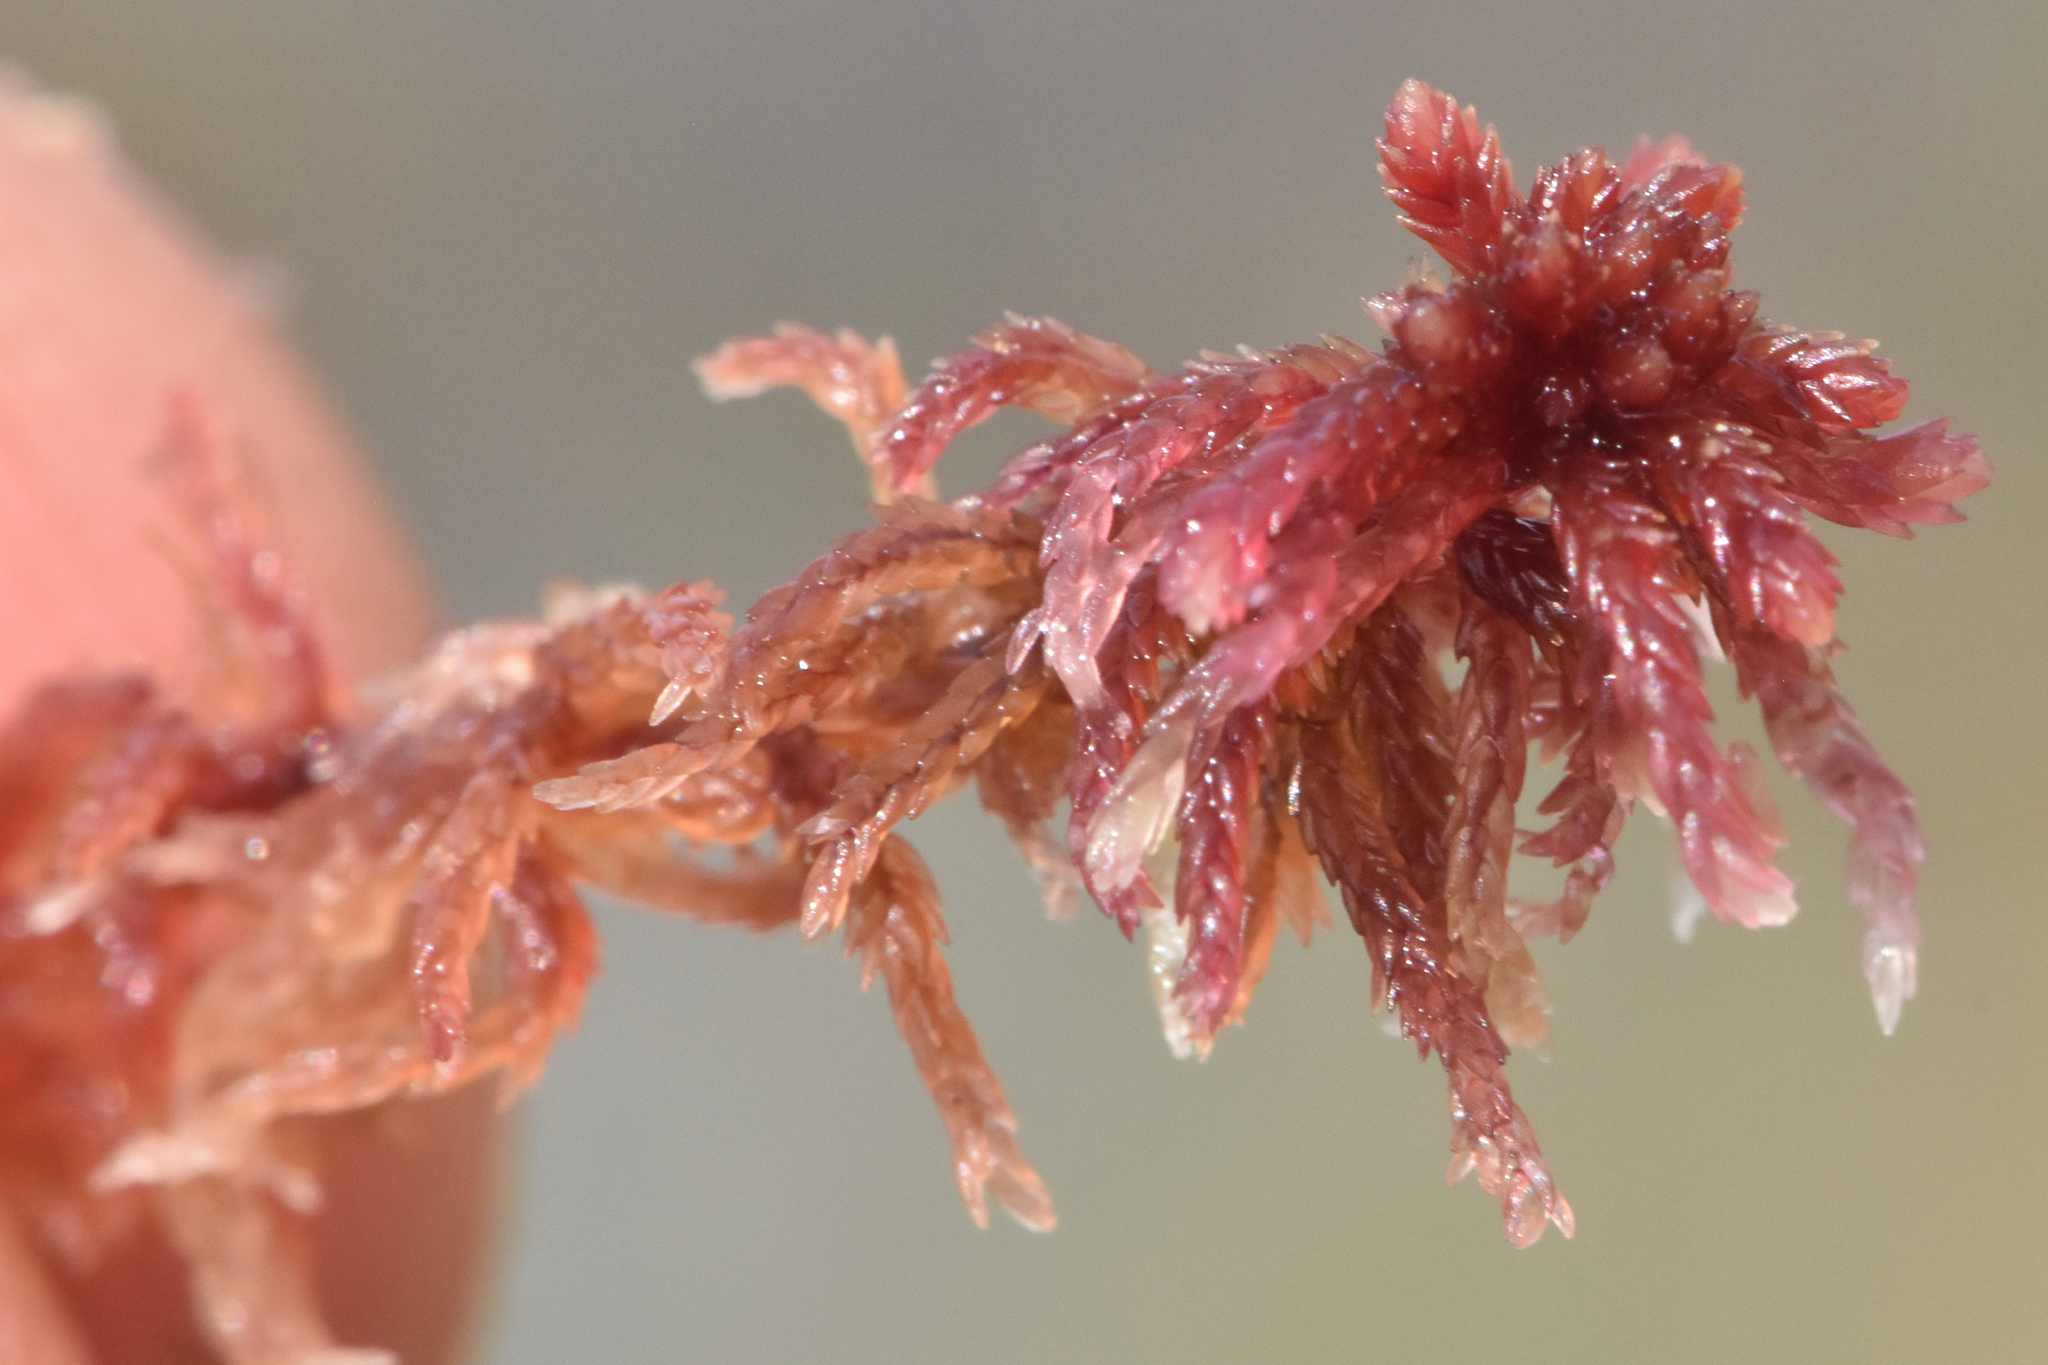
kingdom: Plantae
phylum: Bryophyta
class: Sphagnopsida
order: Sphagnales
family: Sphagnaceae
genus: Sphagnum
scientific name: Sphagnum rubellum
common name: Red peat moss
